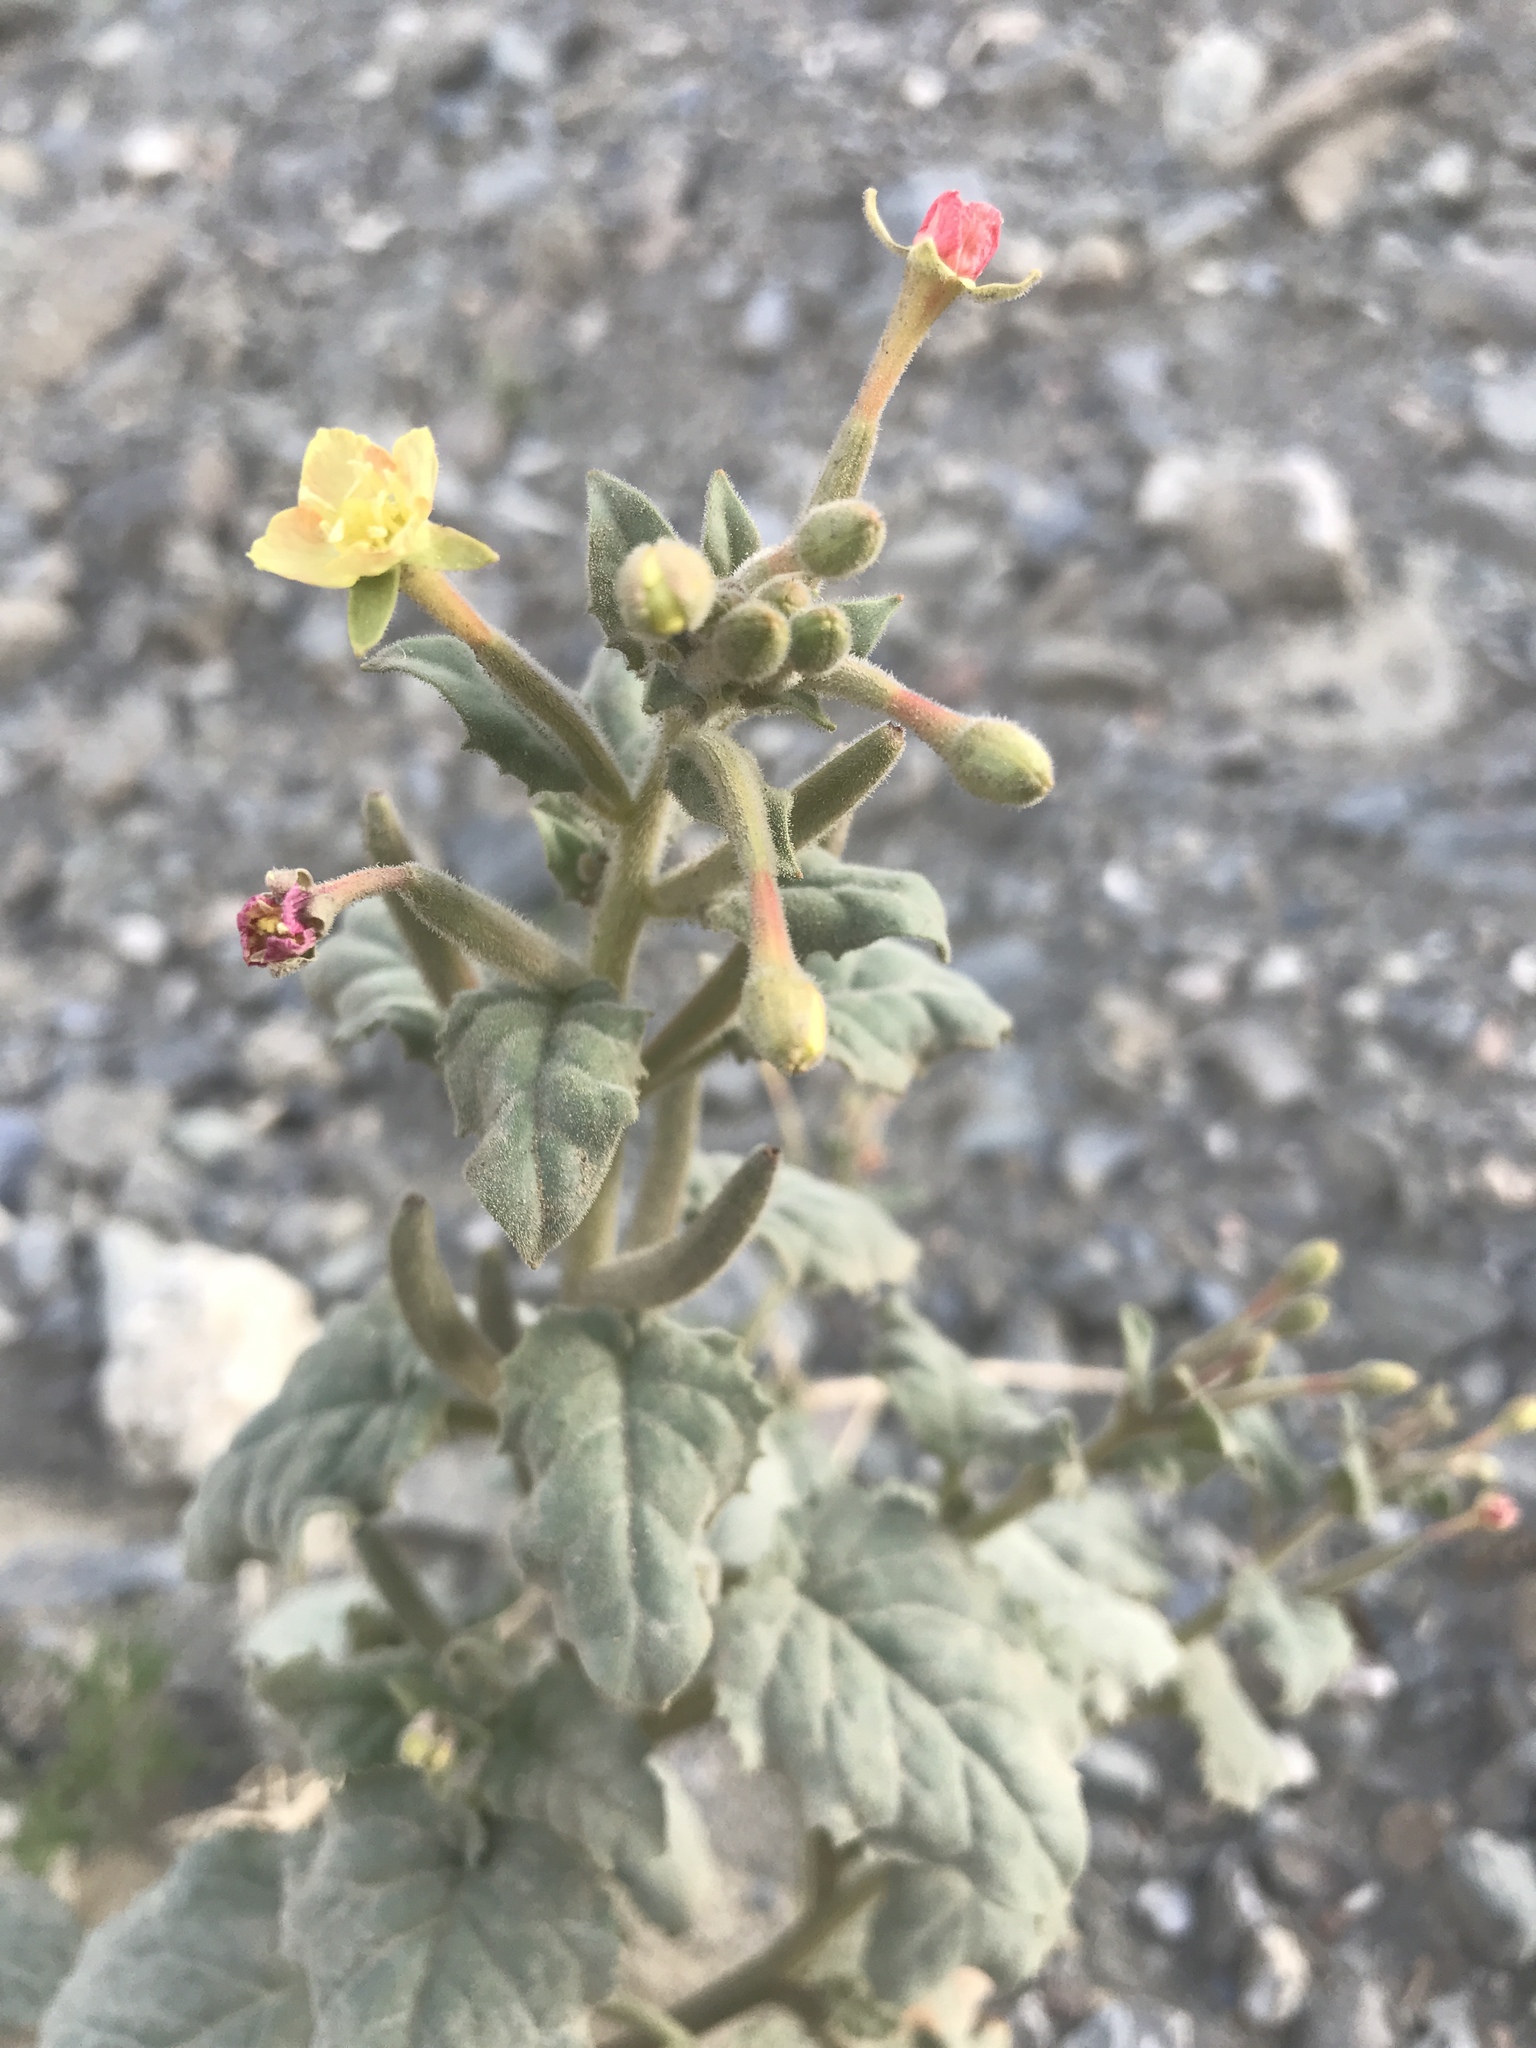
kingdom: Plantae
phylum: Tracheophyta
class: Magnoliopsida
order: Myrtales
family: Onagraceae
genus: Chylismia
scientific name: Chylismia cardiophylla
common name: Heartleaf suncup
